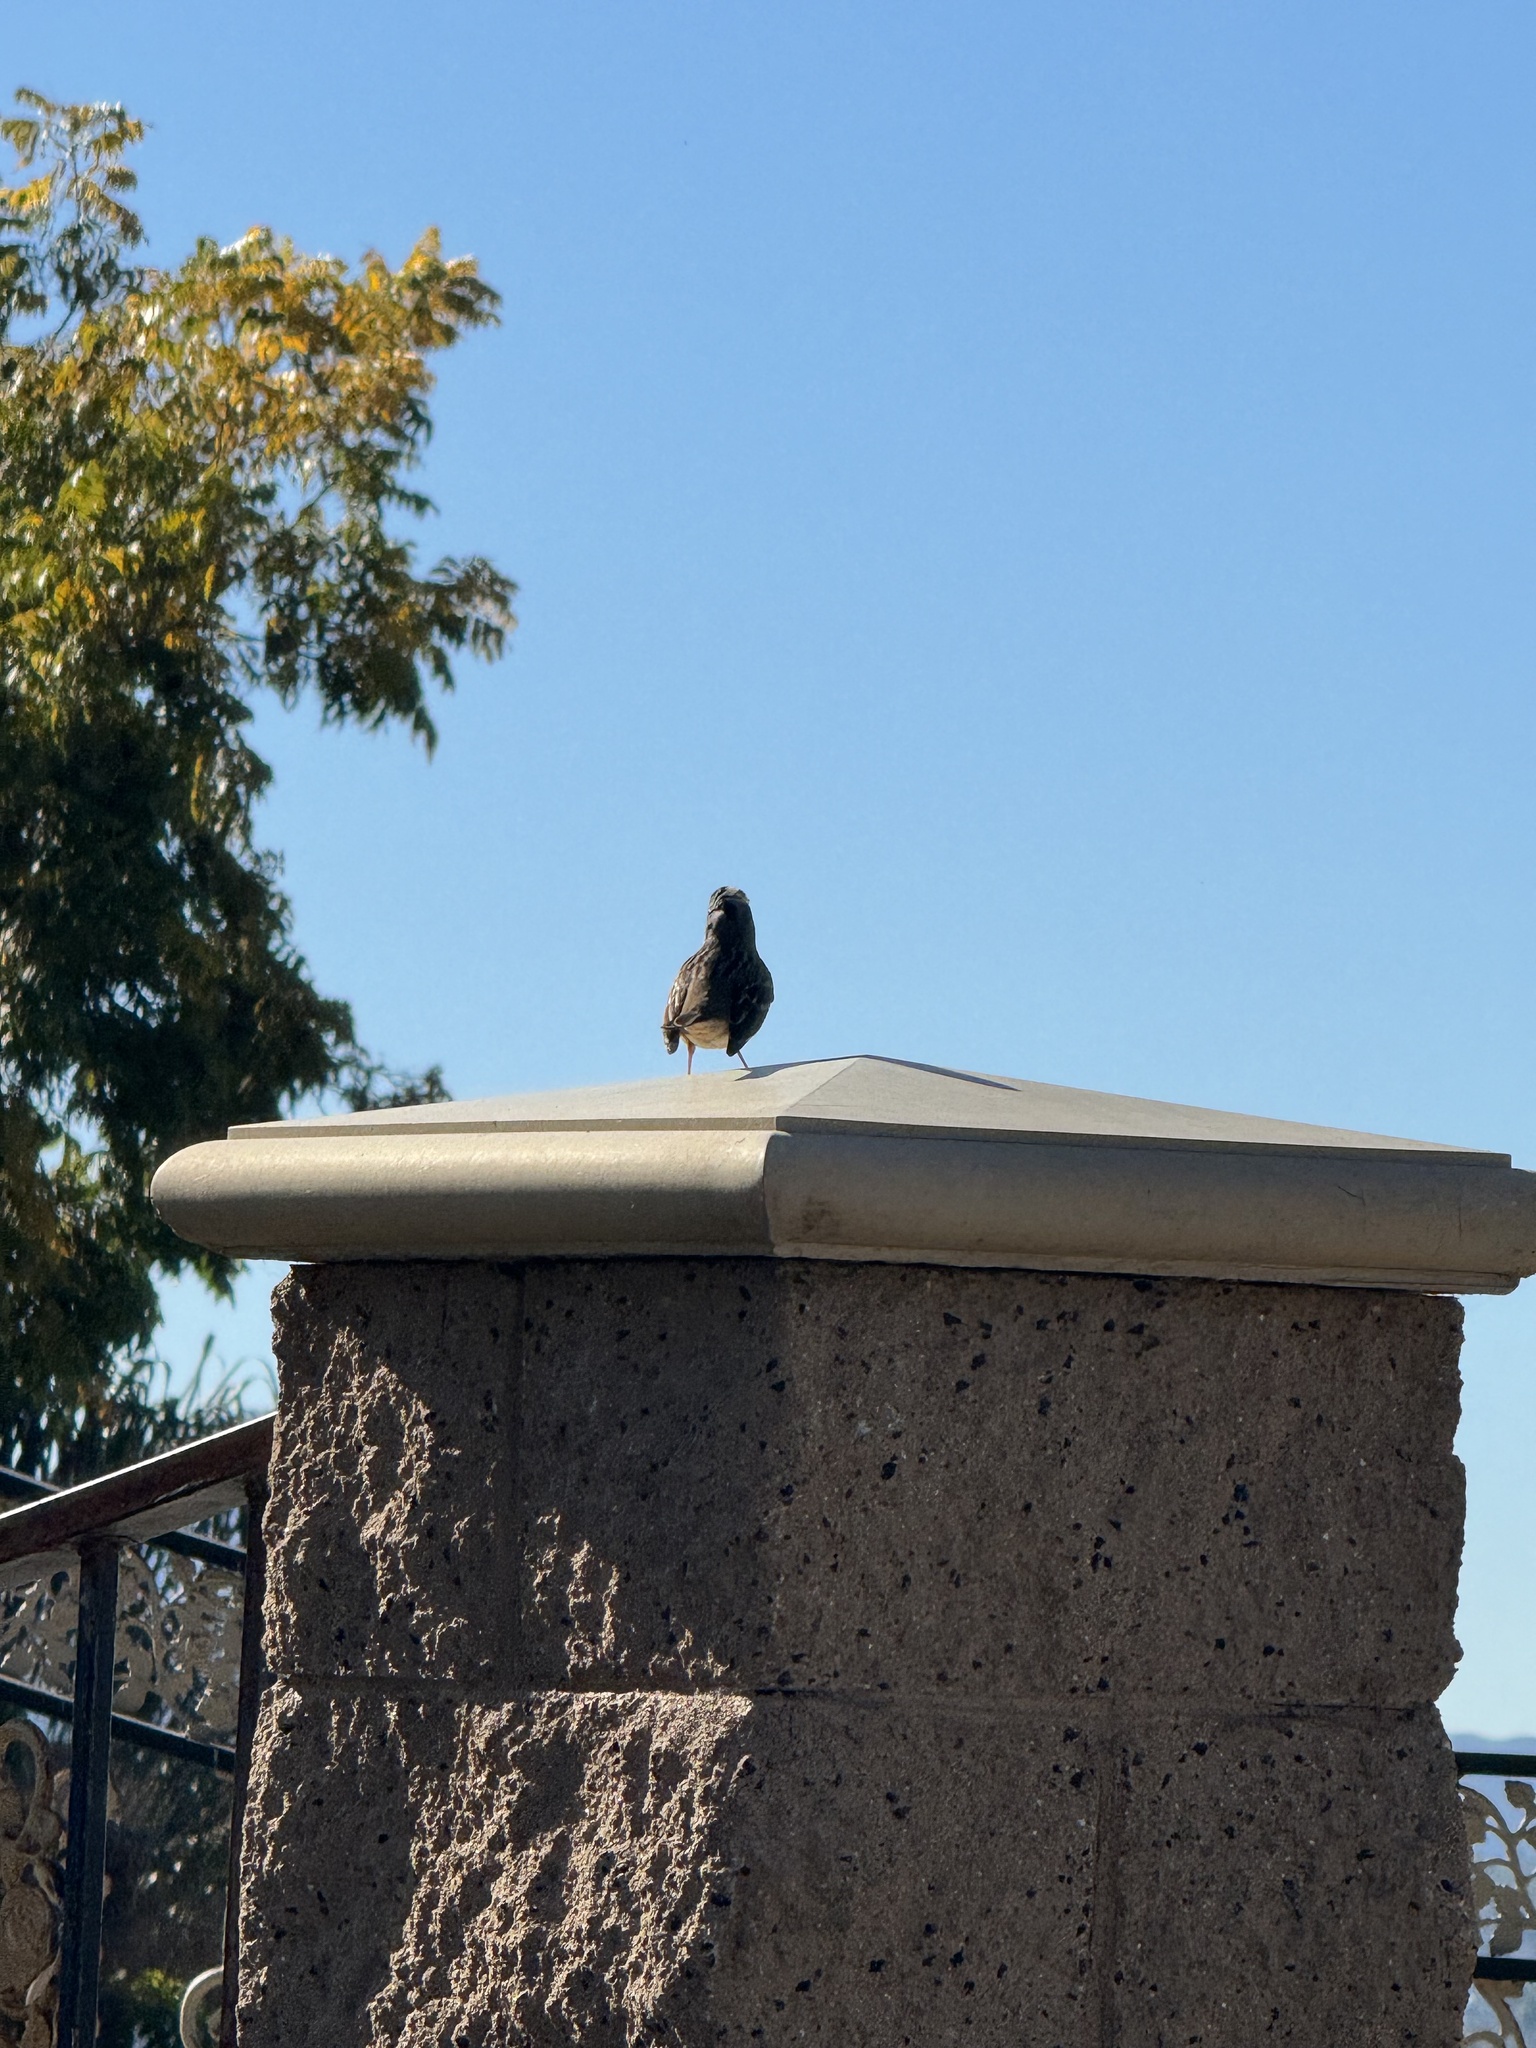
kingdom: Animalia
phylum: Chordata
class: Aves
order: Passeriformes
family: Passerellidae
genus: Zonotrichia
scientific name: Zonotrichia leucophrys
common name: White-crowned sparrow
